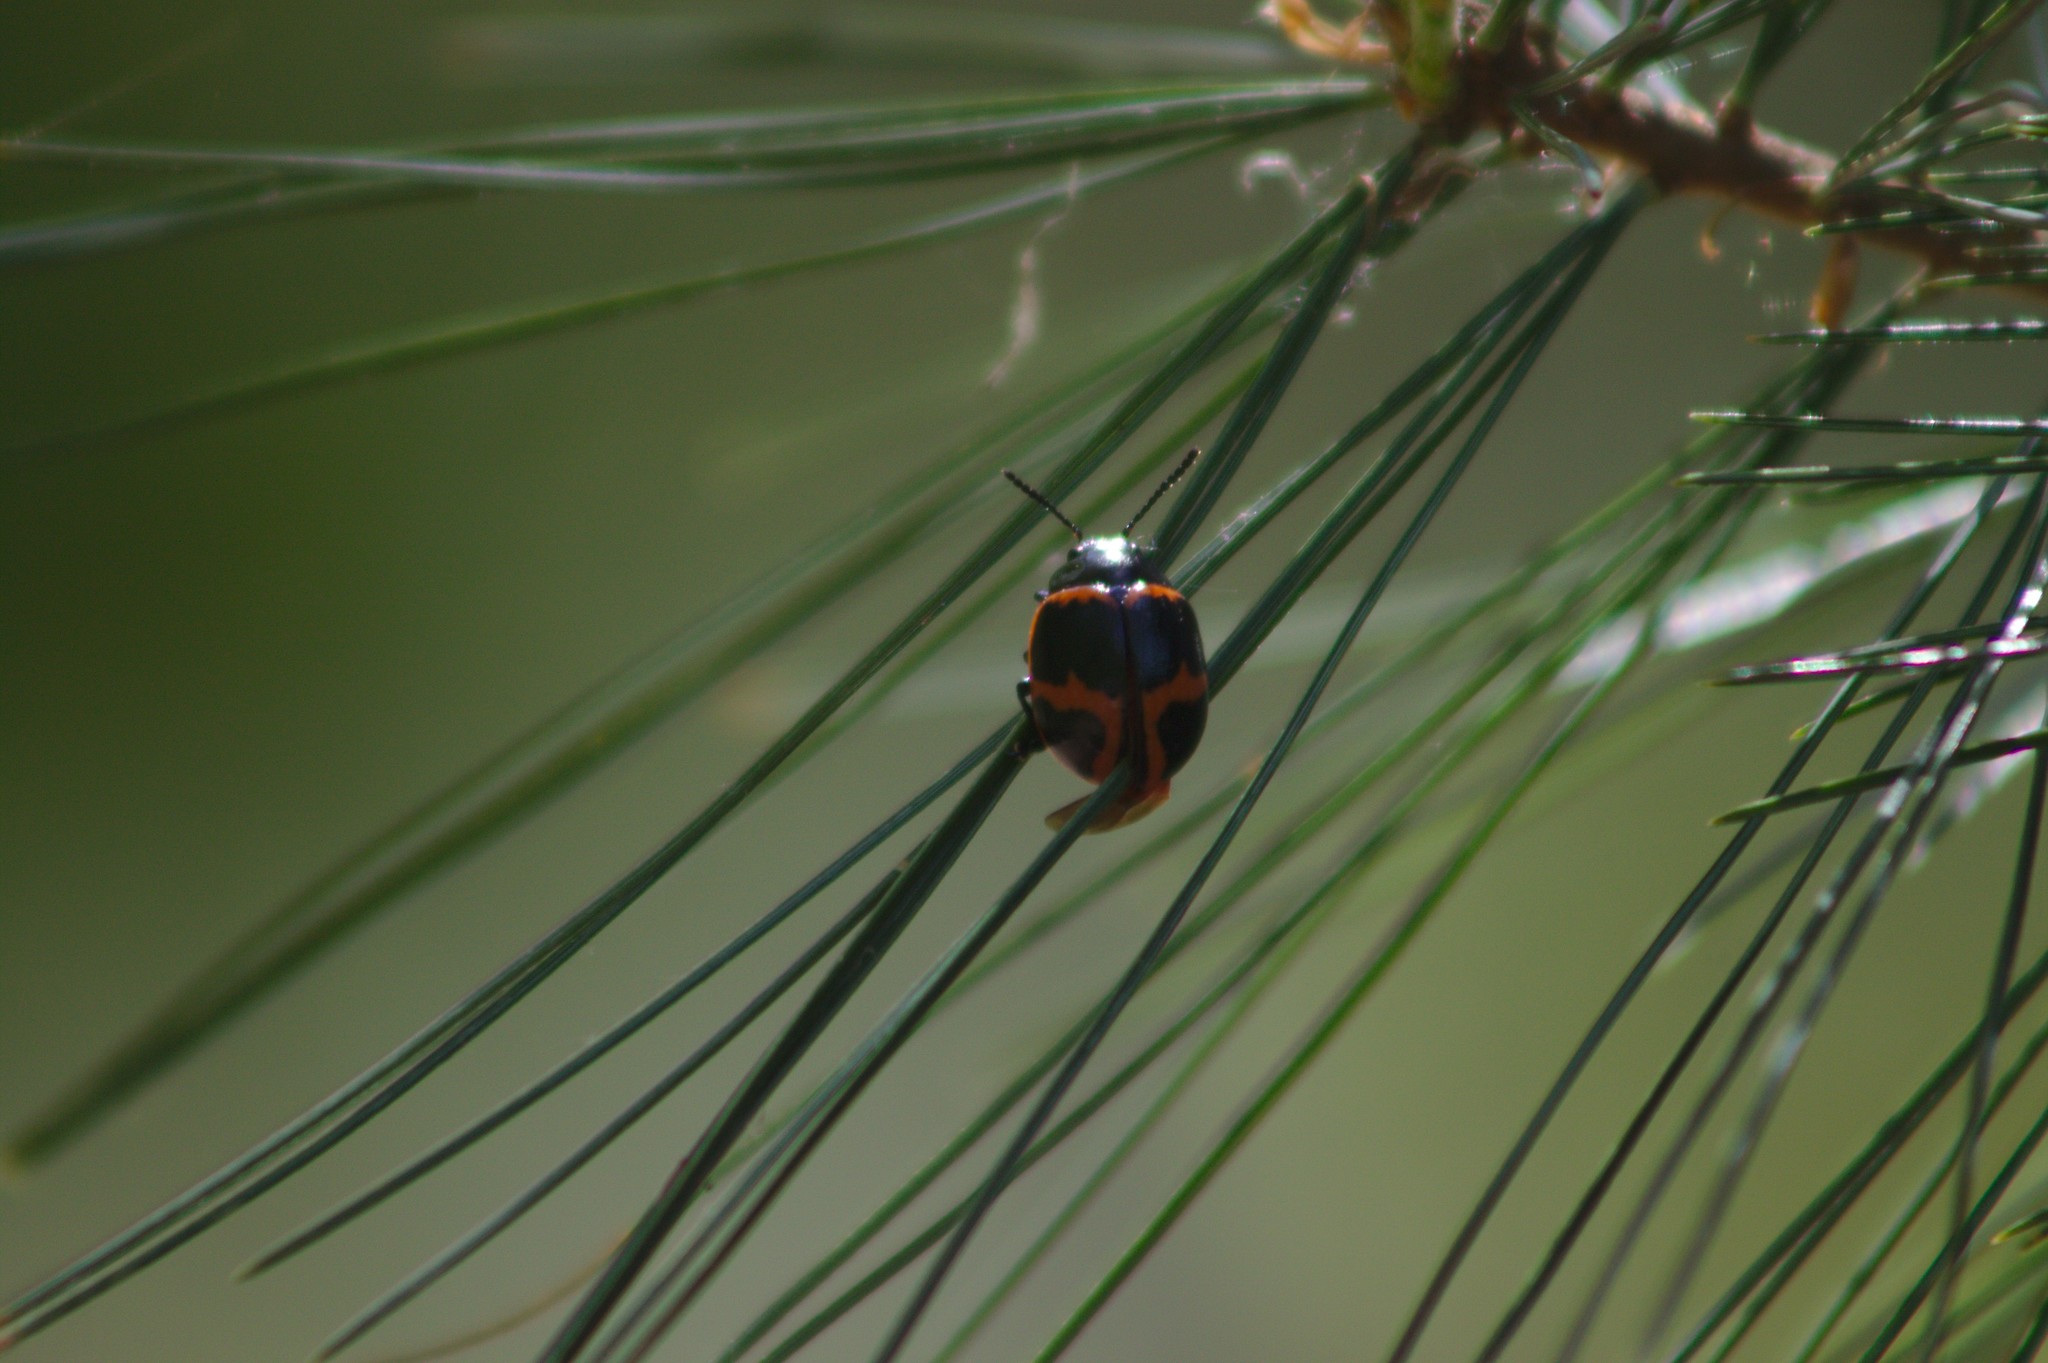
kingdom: Animalia
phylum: Arthropoda
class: Insecta
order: Coleoptera
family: Chrysomelidae
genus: Labidomera
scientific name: Labidomera clivicollis
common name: Swamp milkweed leaf beetle
